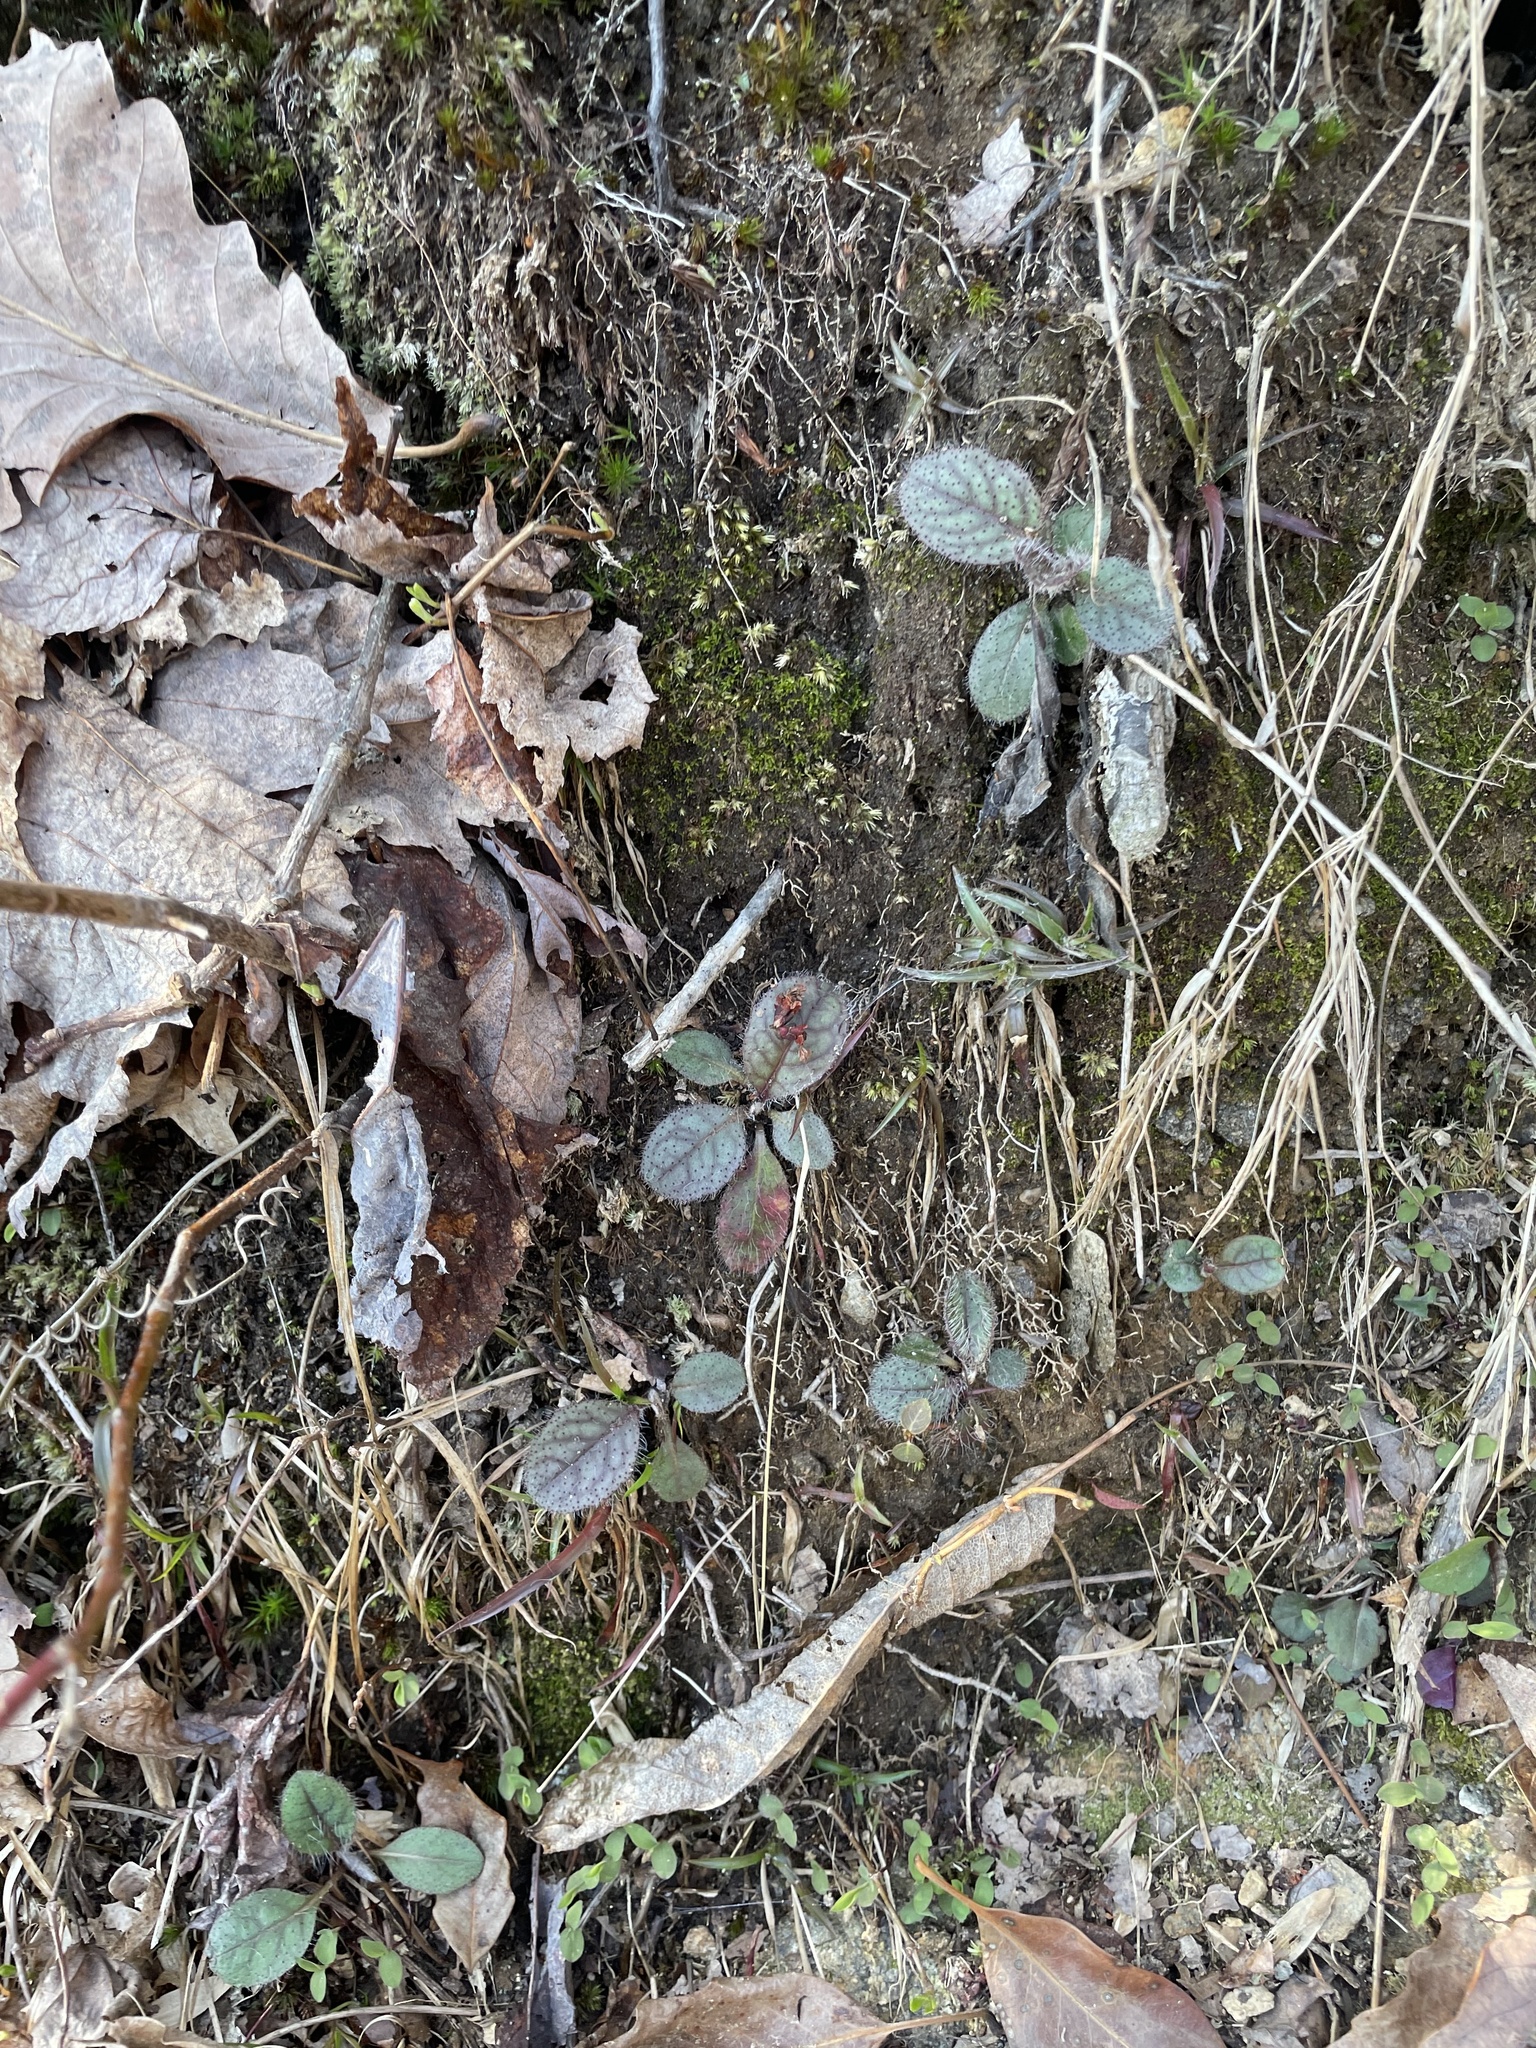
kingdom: Plantae
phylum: Tracheophyta
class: Magnoliopsida
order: Asterales
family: Asteraceae
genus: Hieracium
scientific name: Hieracium venosum
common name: Rattlesnake hawkweed
